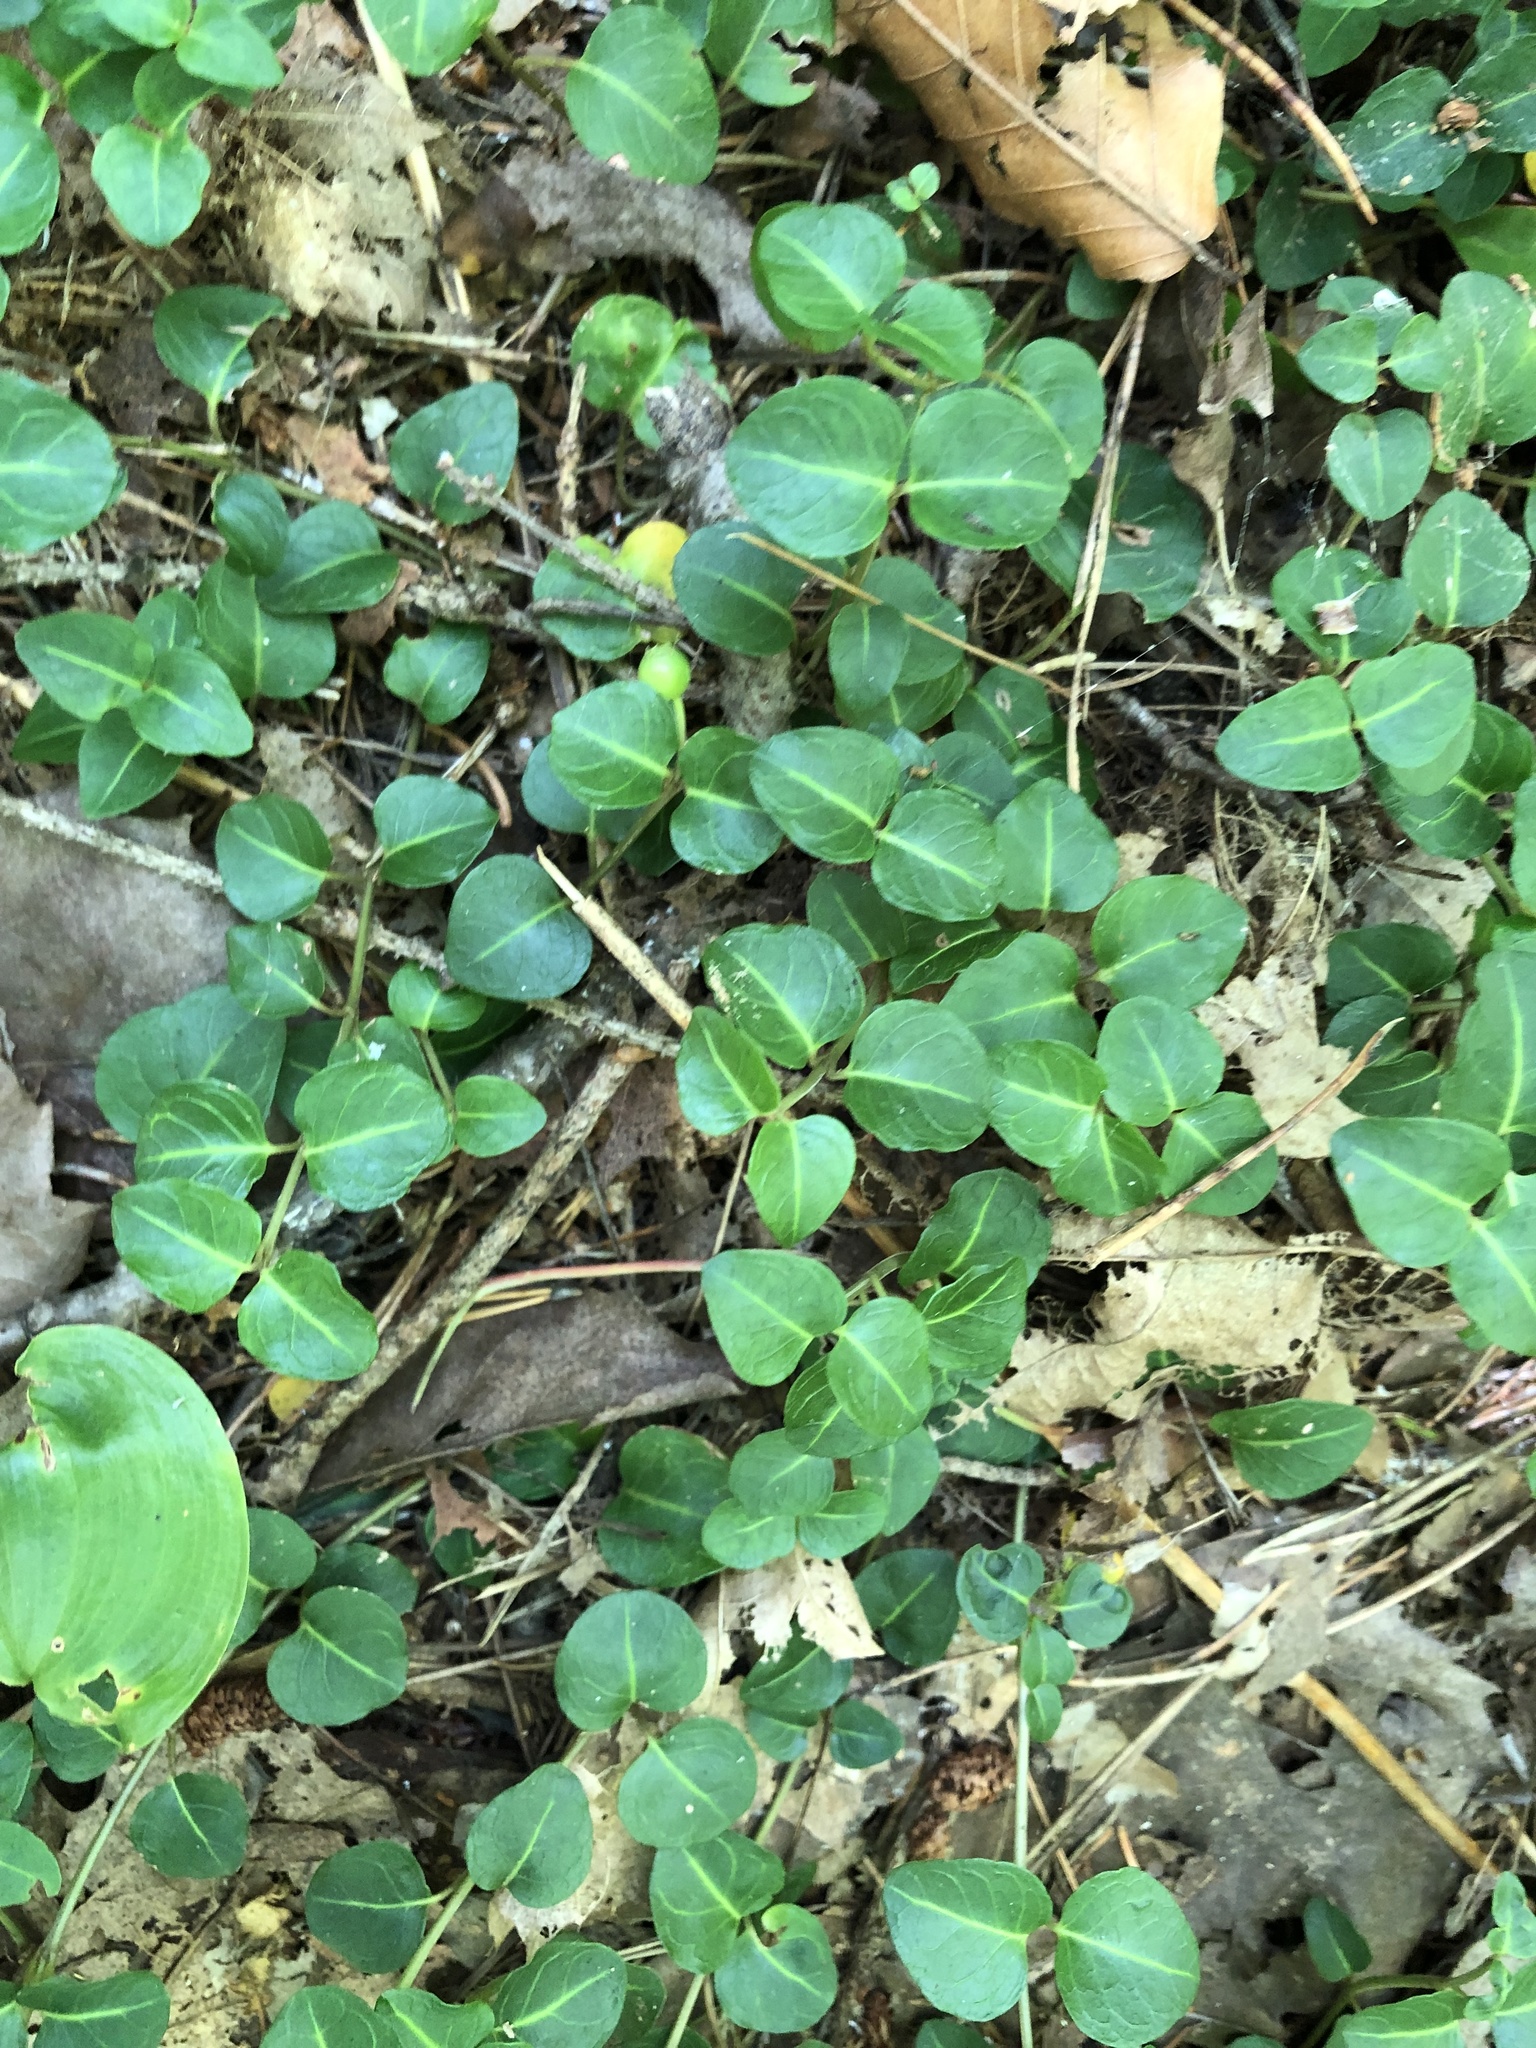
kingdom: Plantae
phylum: Tracheophyta
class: Magnoliopsida
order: Gentianales
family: Rubiaceae
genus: Mitchella
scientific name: Mitchella repens
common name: Partridge-berry
